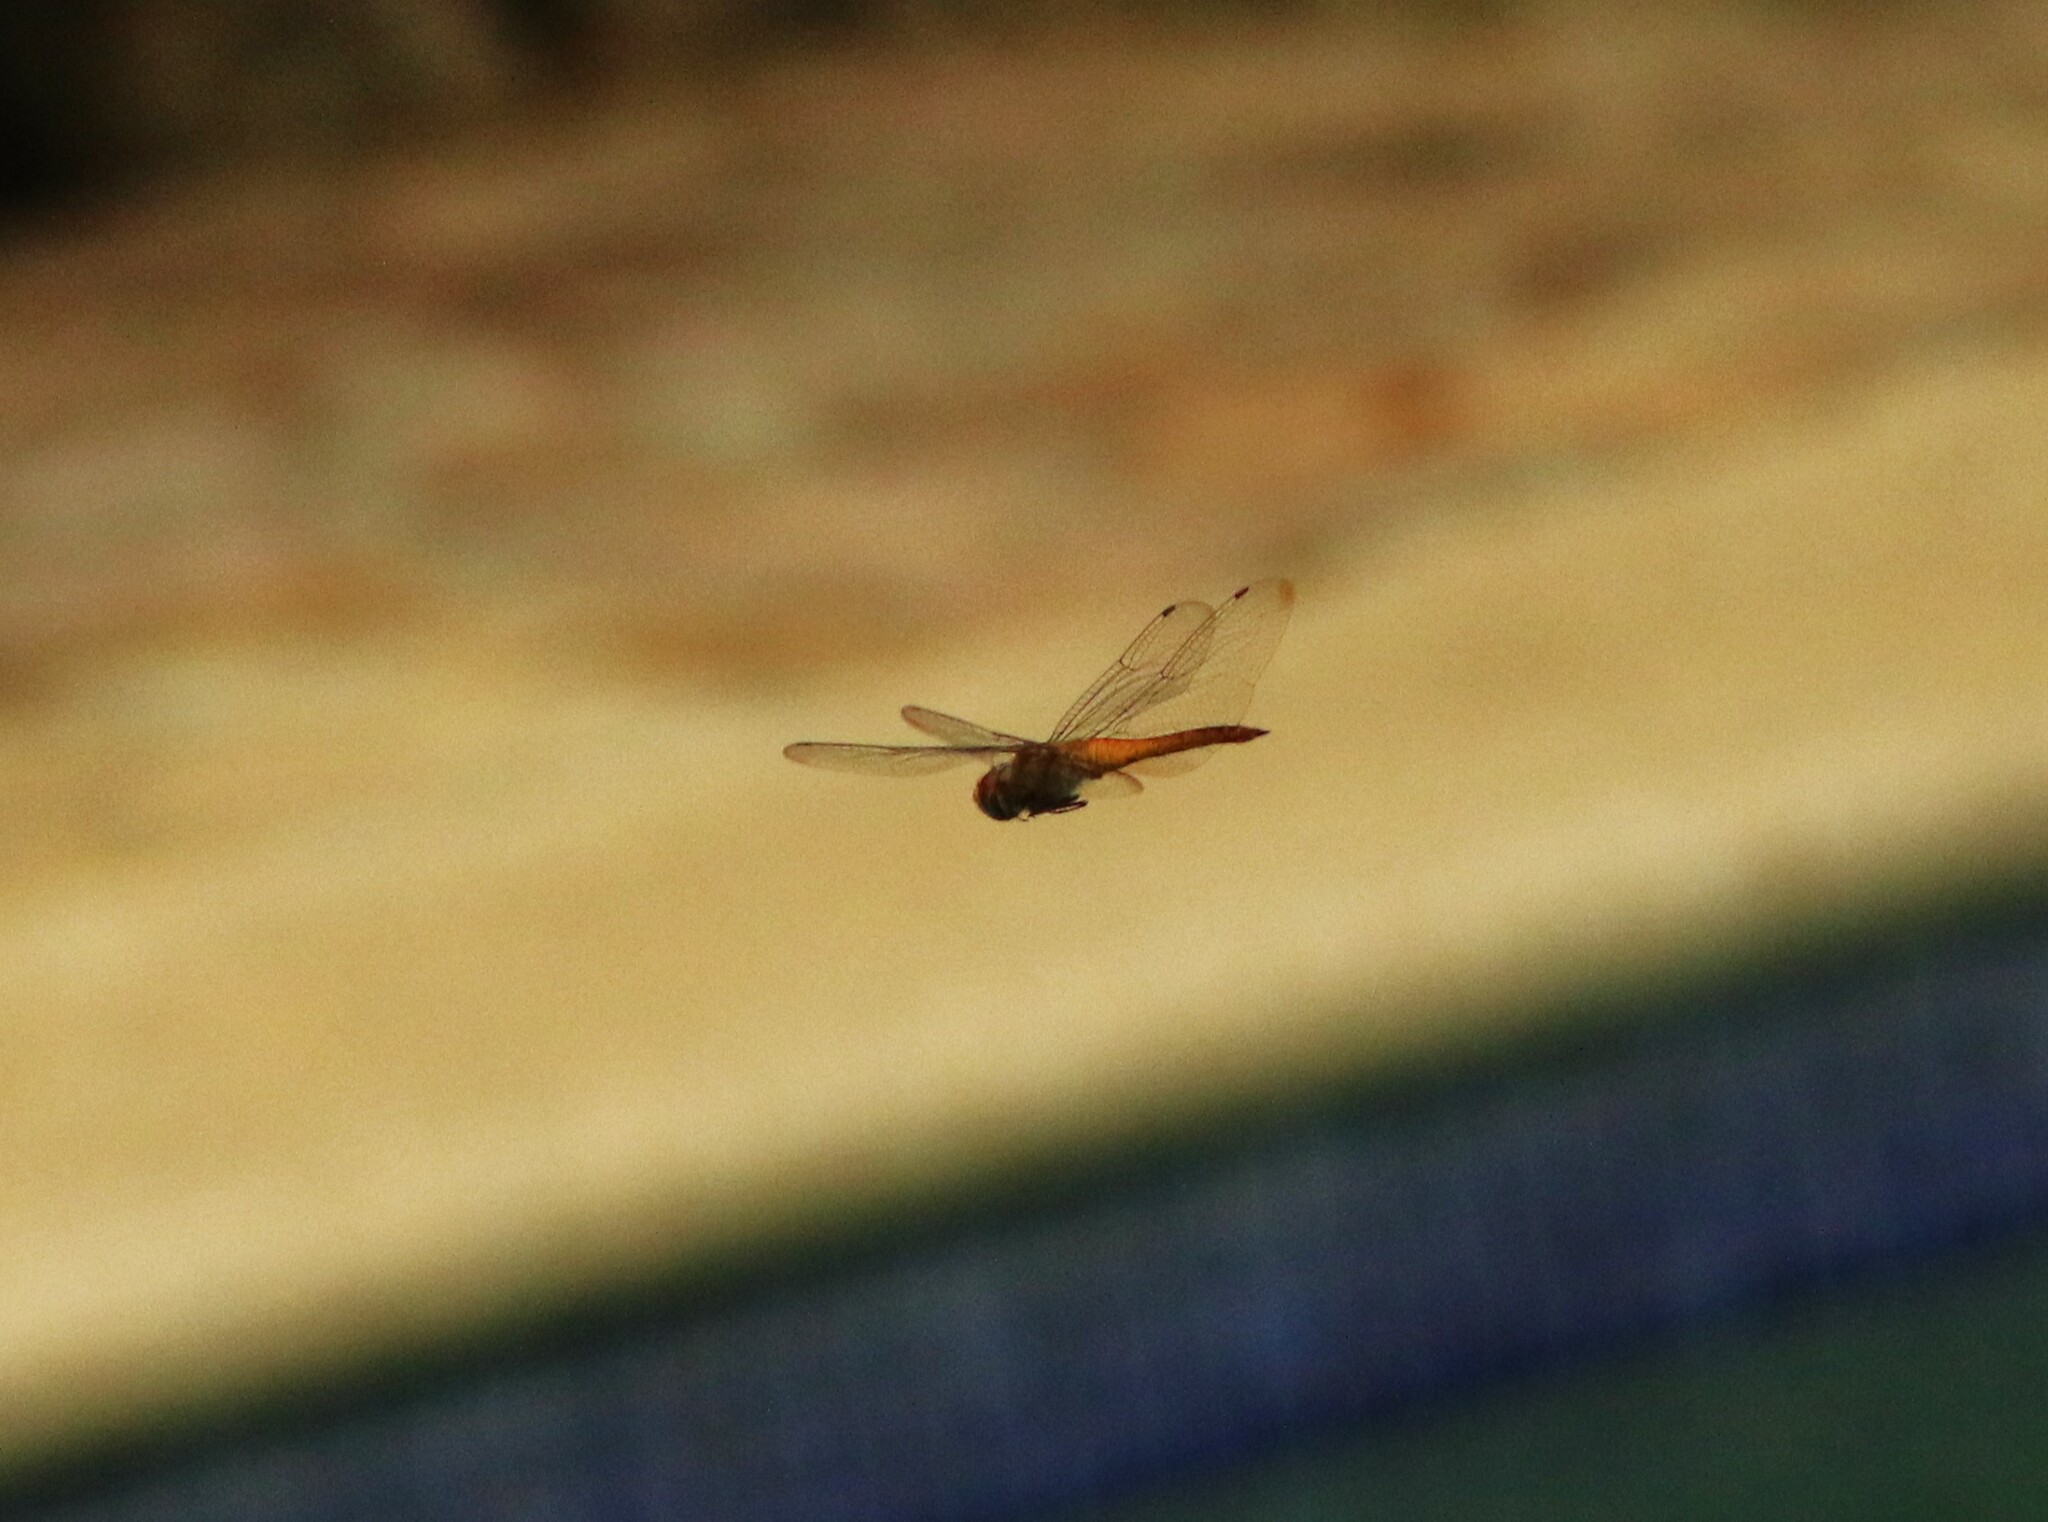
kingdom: Animalia
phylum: Arthropoda
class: Insecta
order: Odonata
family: Libellulidae
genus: Pantala
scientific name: Pantala flavescens
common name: Wandering glider
